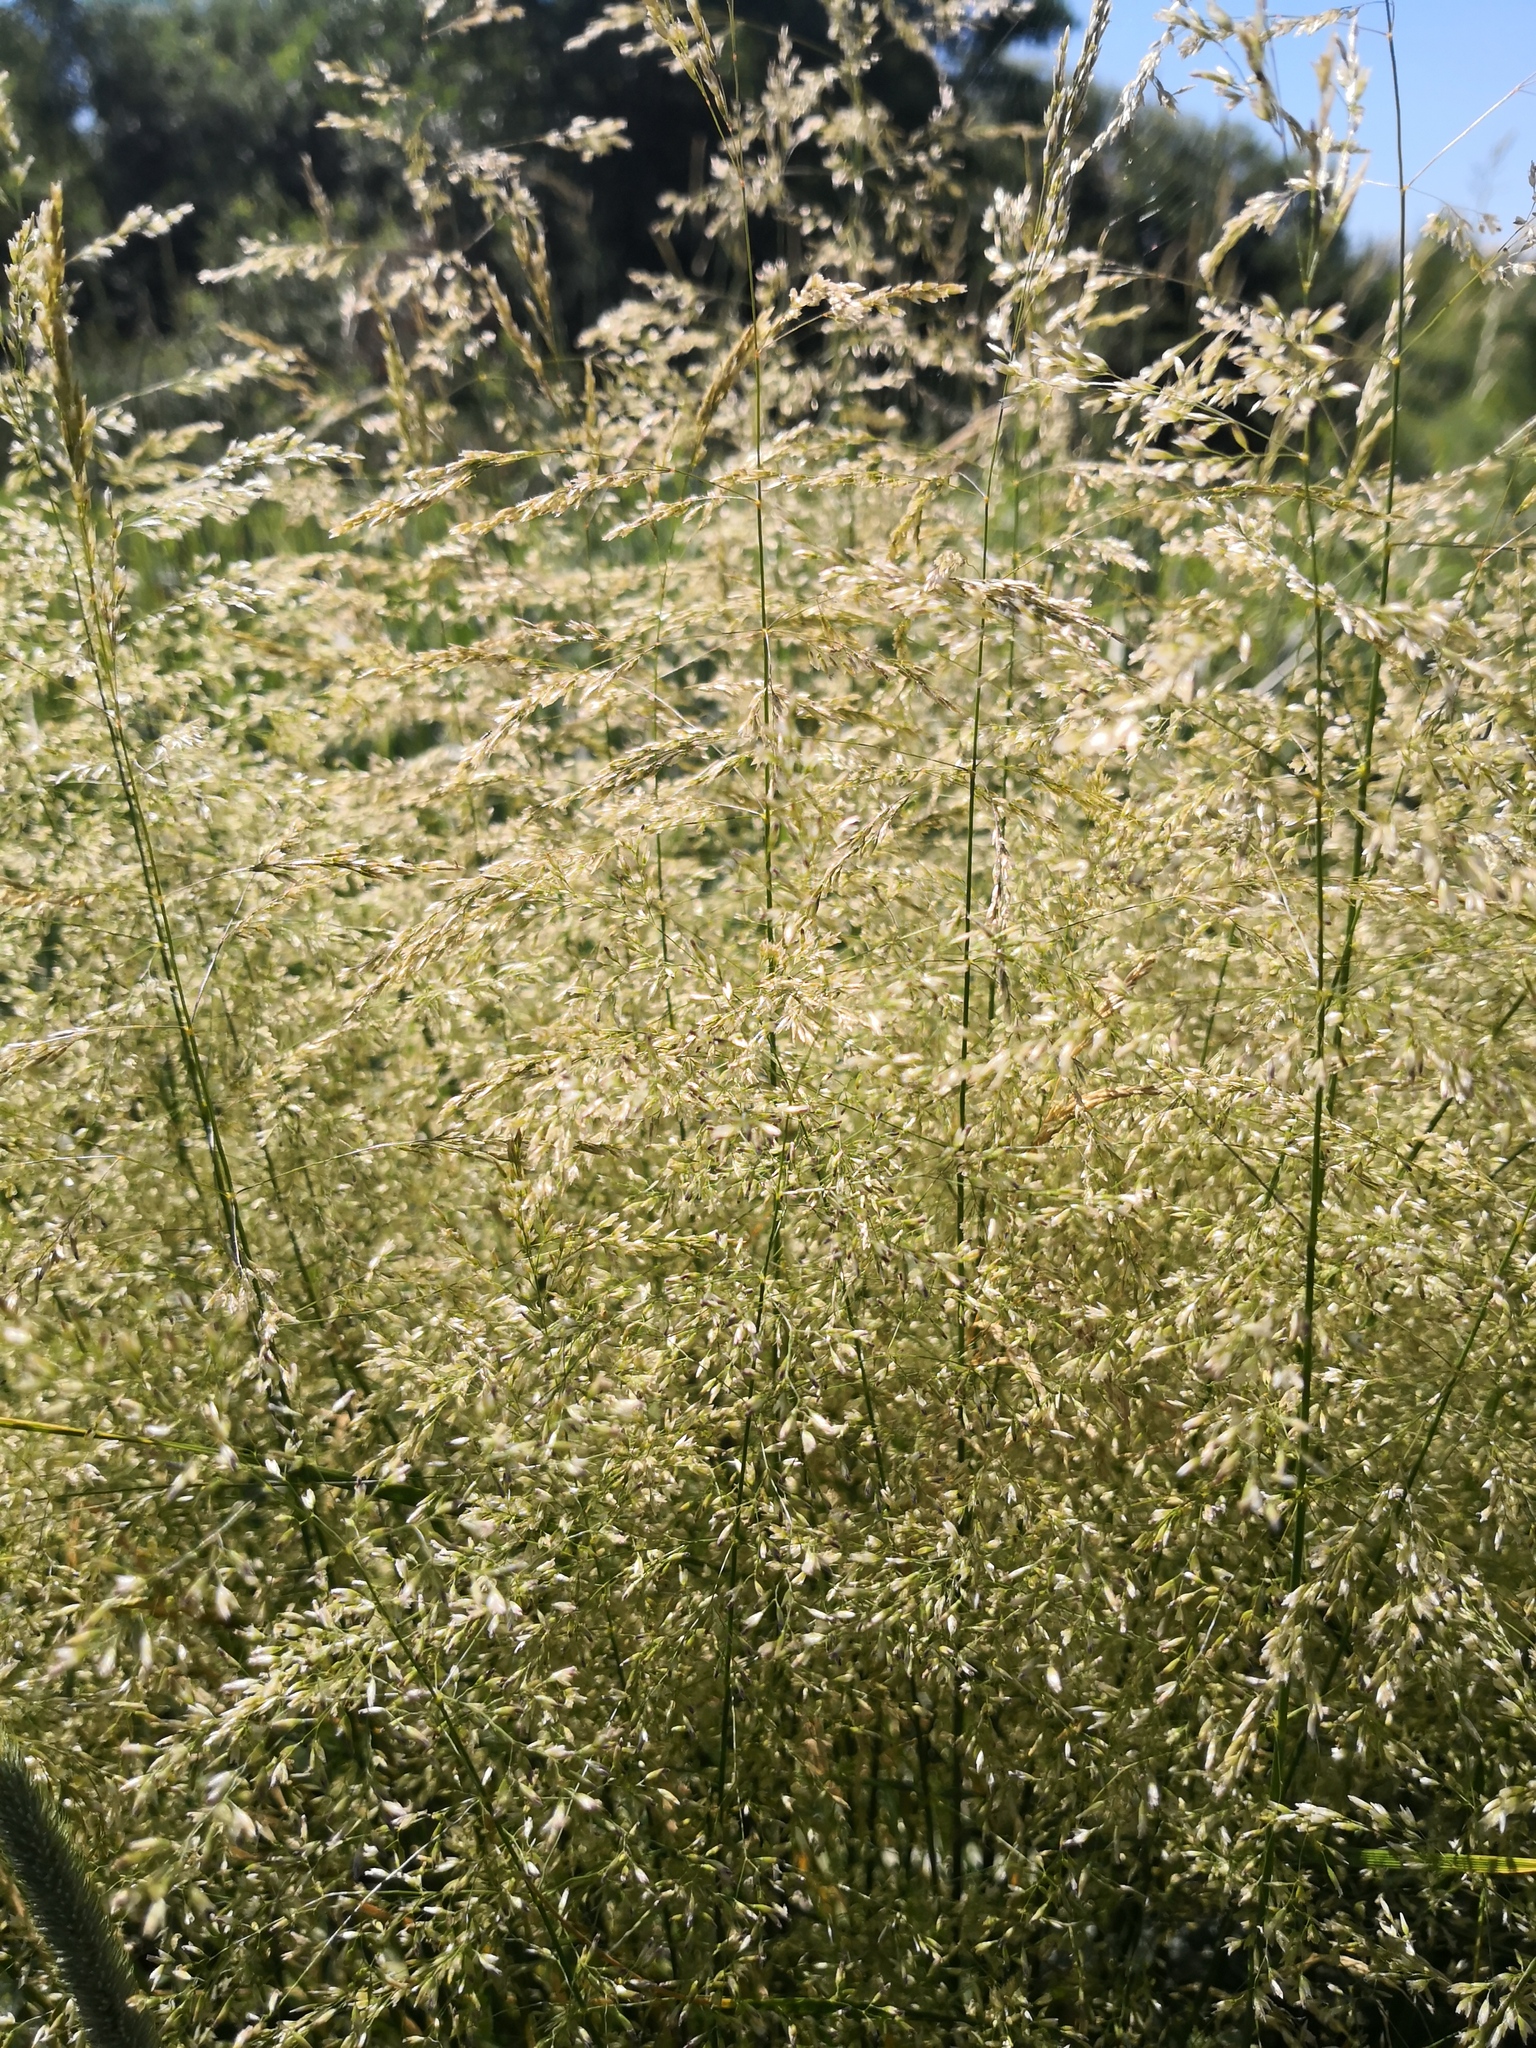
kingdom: Plantae
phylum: Tracheophyta
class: Liliopsida
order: Poales
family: Poaceae
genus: Deschampsia
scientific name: Deschampsia cespitosa
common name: Tufted hair-grass
